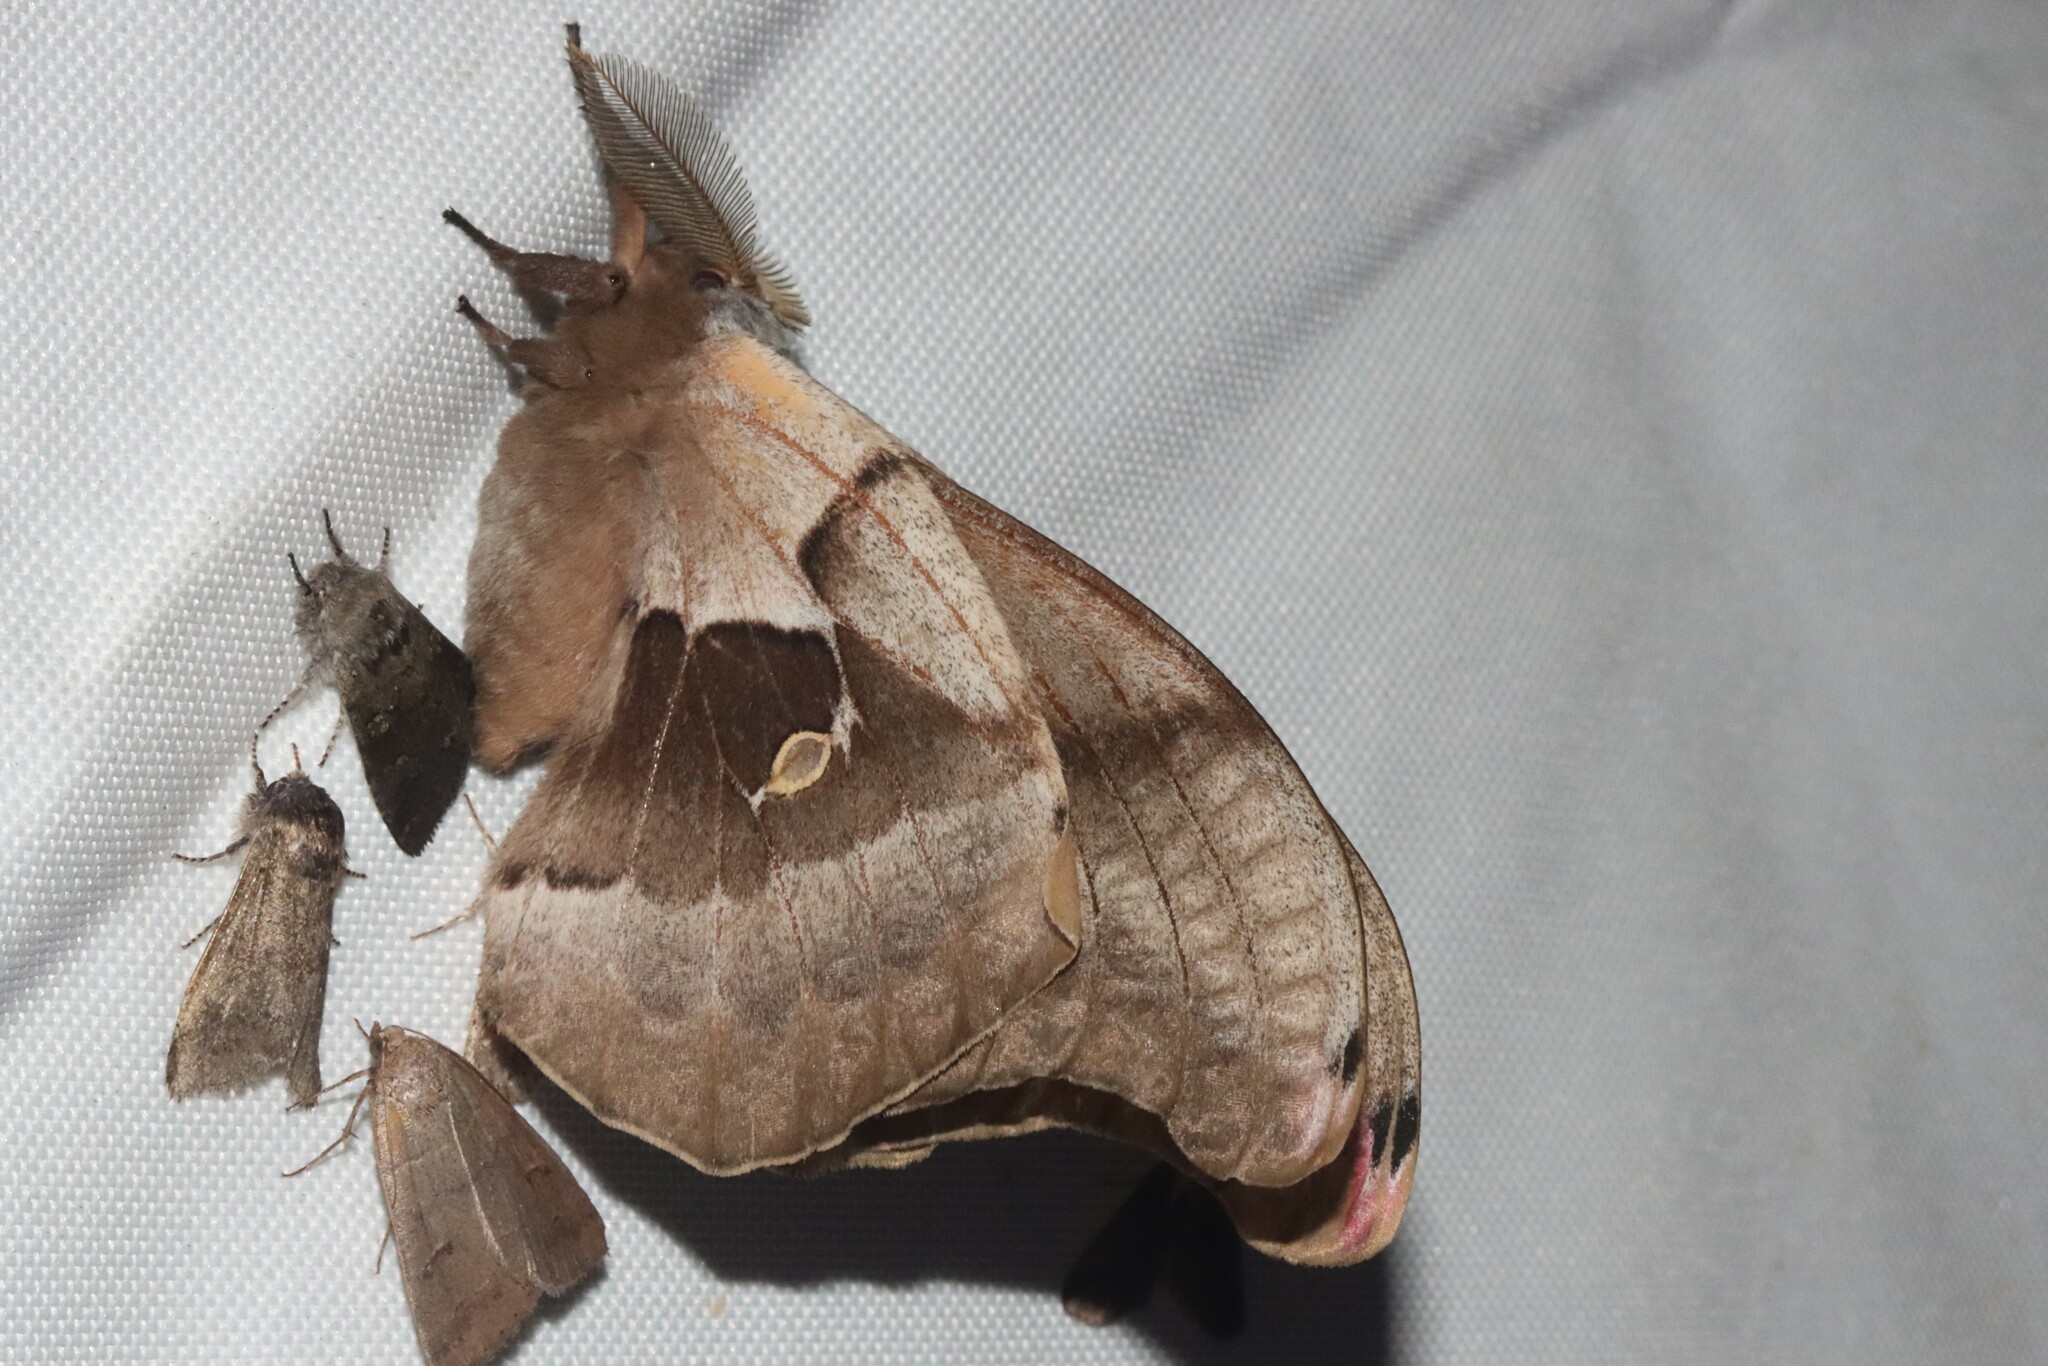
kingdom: Animalia
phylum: Arthropoda
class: Insecta
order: Lepidoptera
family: Saturniidae
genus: Antheraea
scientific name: Antheraea polyphemus
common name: Polyphemus moth
